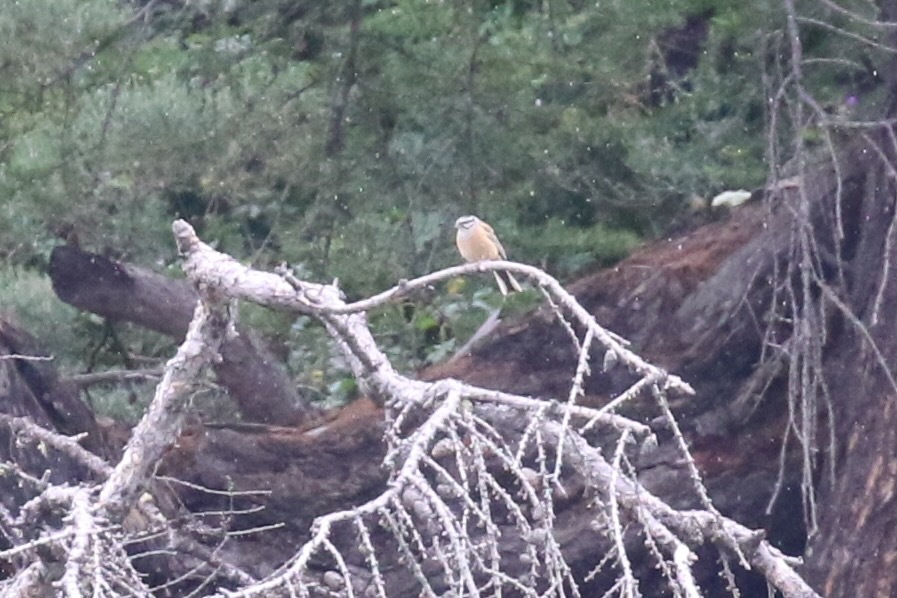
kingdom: Animalia
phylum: Chordata
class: Aves
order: Passeriformes
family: Emberizidae
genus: Emberiza
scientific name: Emberiza cia
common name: Rock bunting
